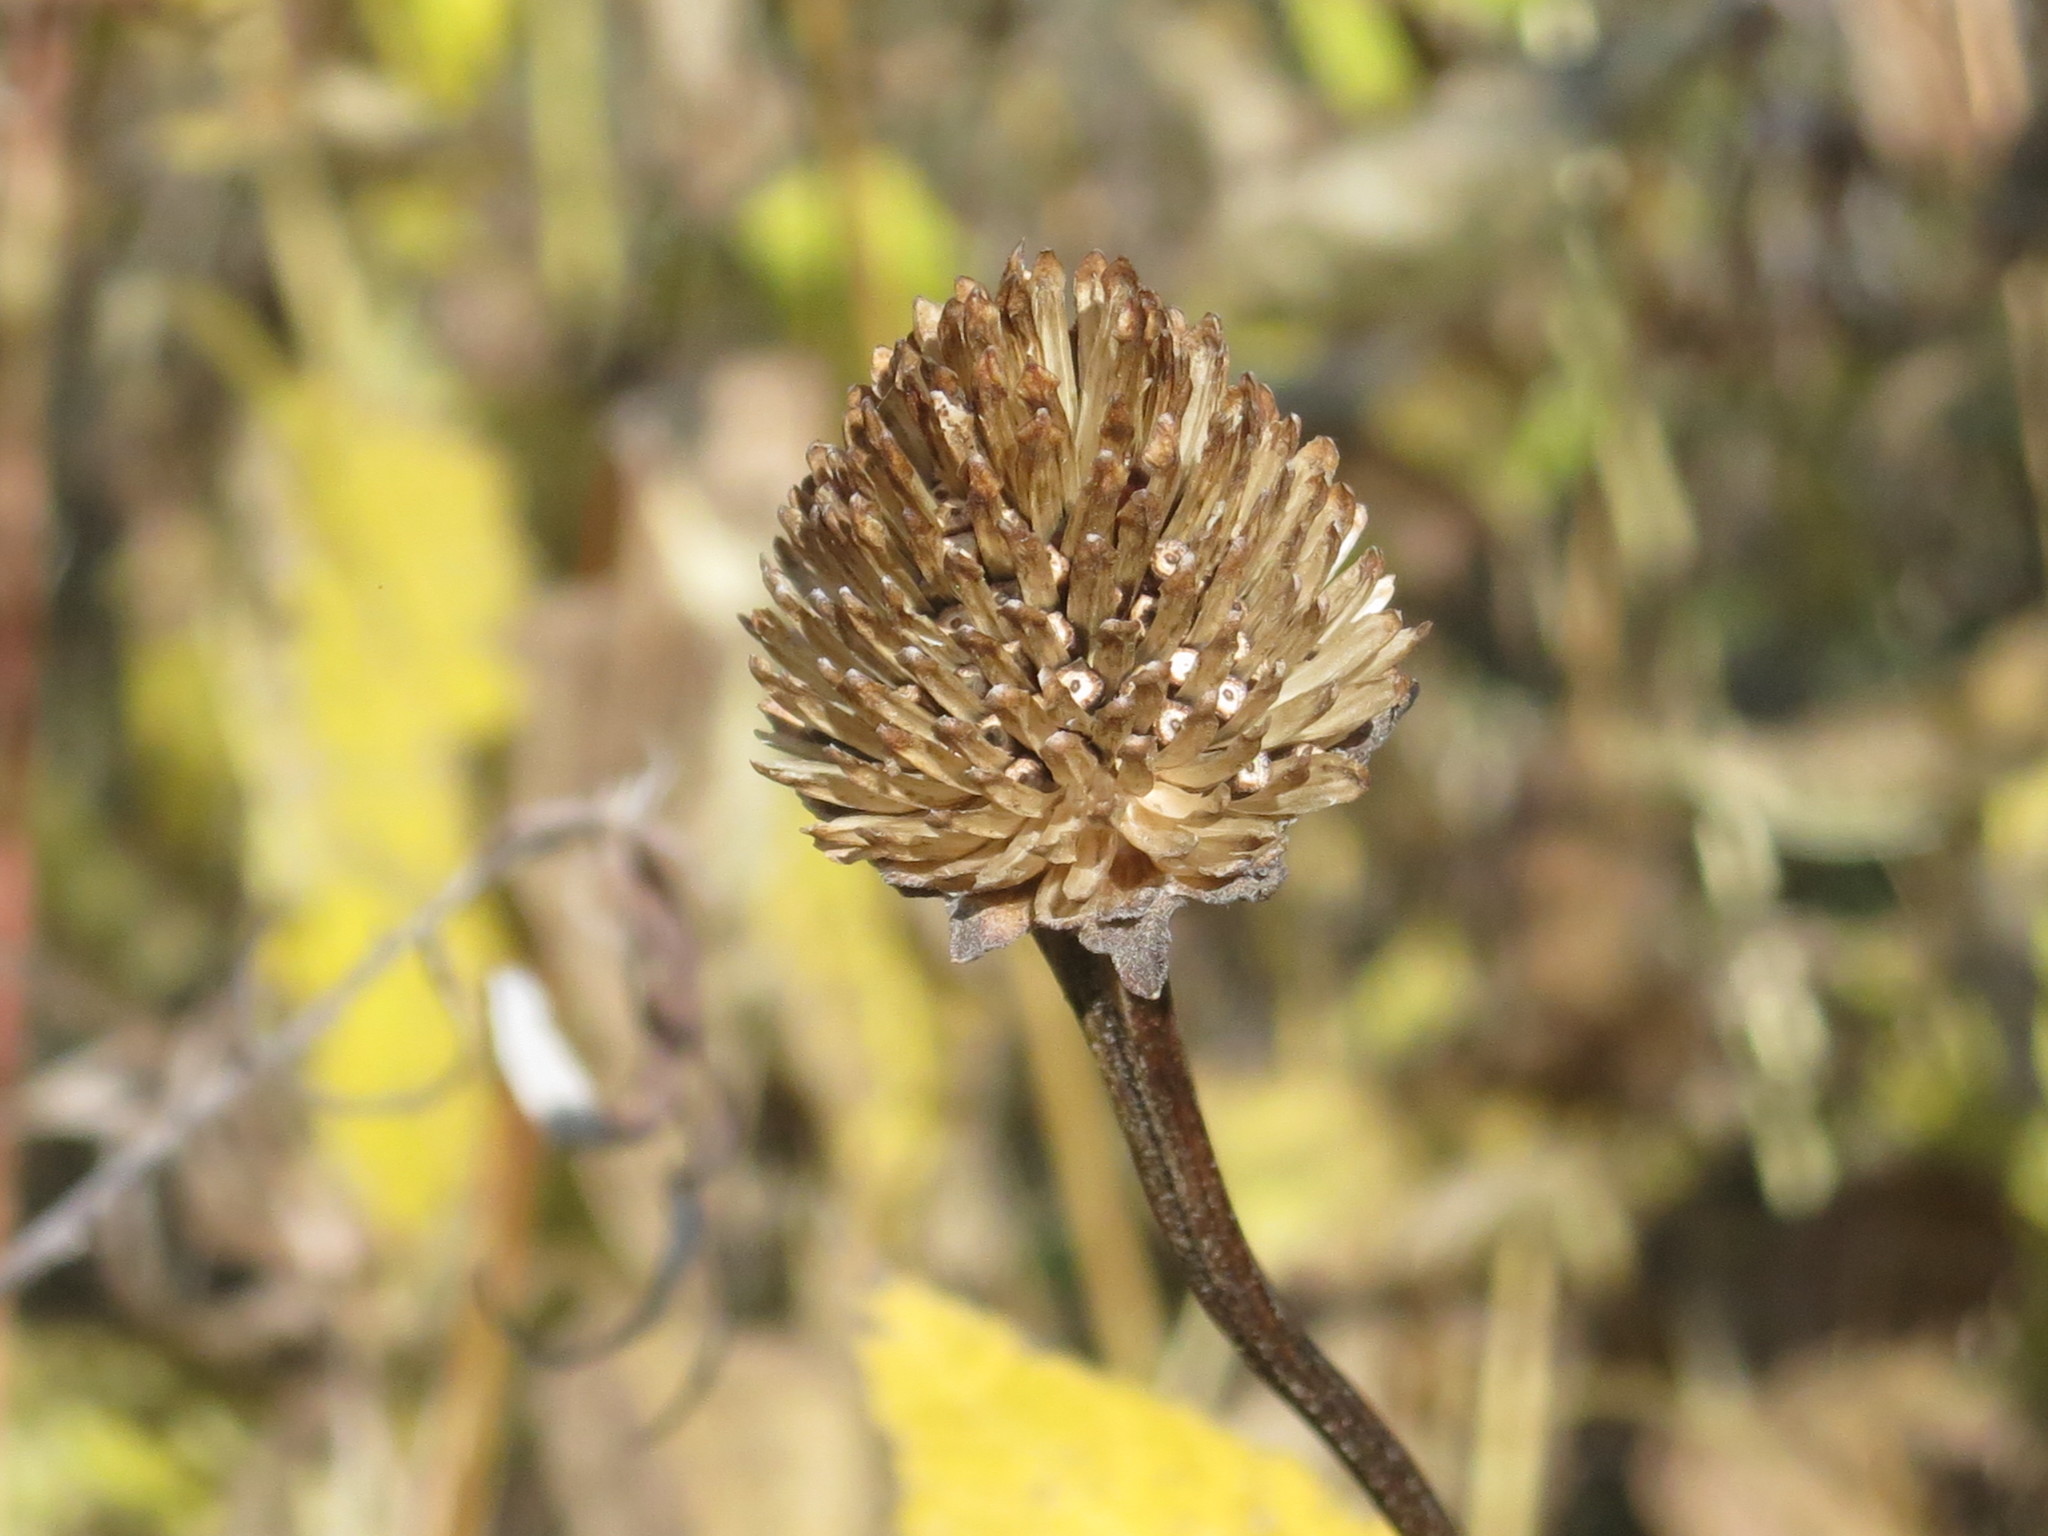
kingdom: Plantae
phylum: Tracheophyta
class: Magnoliopsida
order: Asterales
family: Asteraceae
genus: Heliopsis
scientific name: Heliopsis helianthoides
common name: False sunflower
